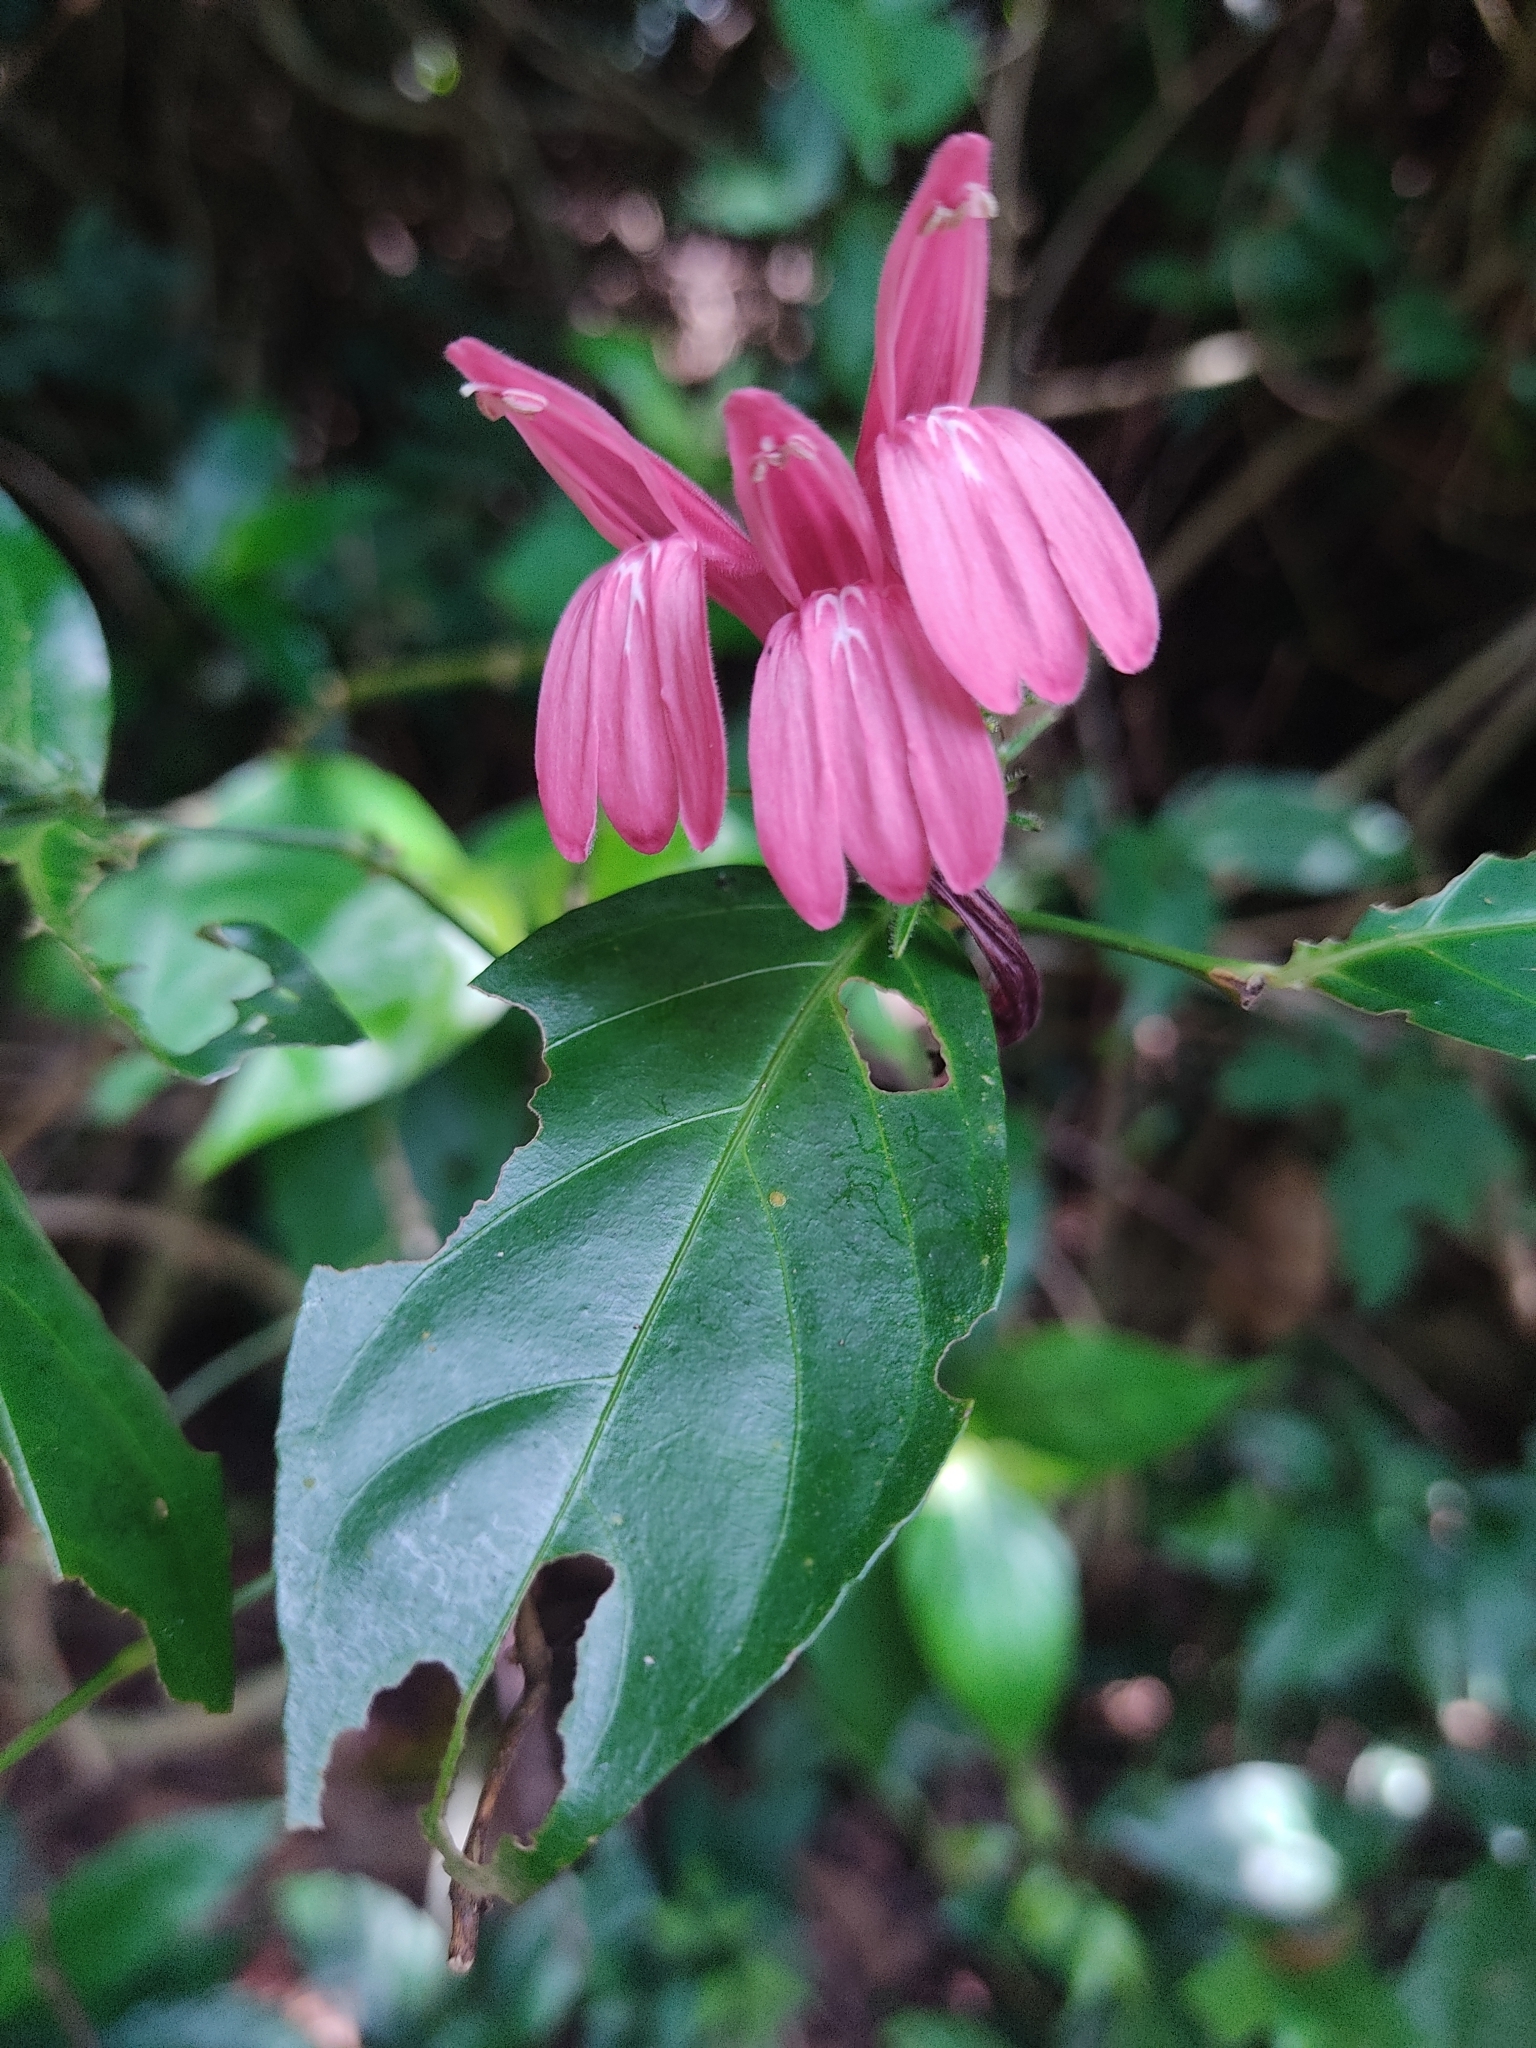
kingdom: Plantae
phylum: Tracheophyta
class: Magnoliopsida
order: Lamiales
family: Acanthaceae
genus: Justicia
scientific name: Justicia brasiliana
